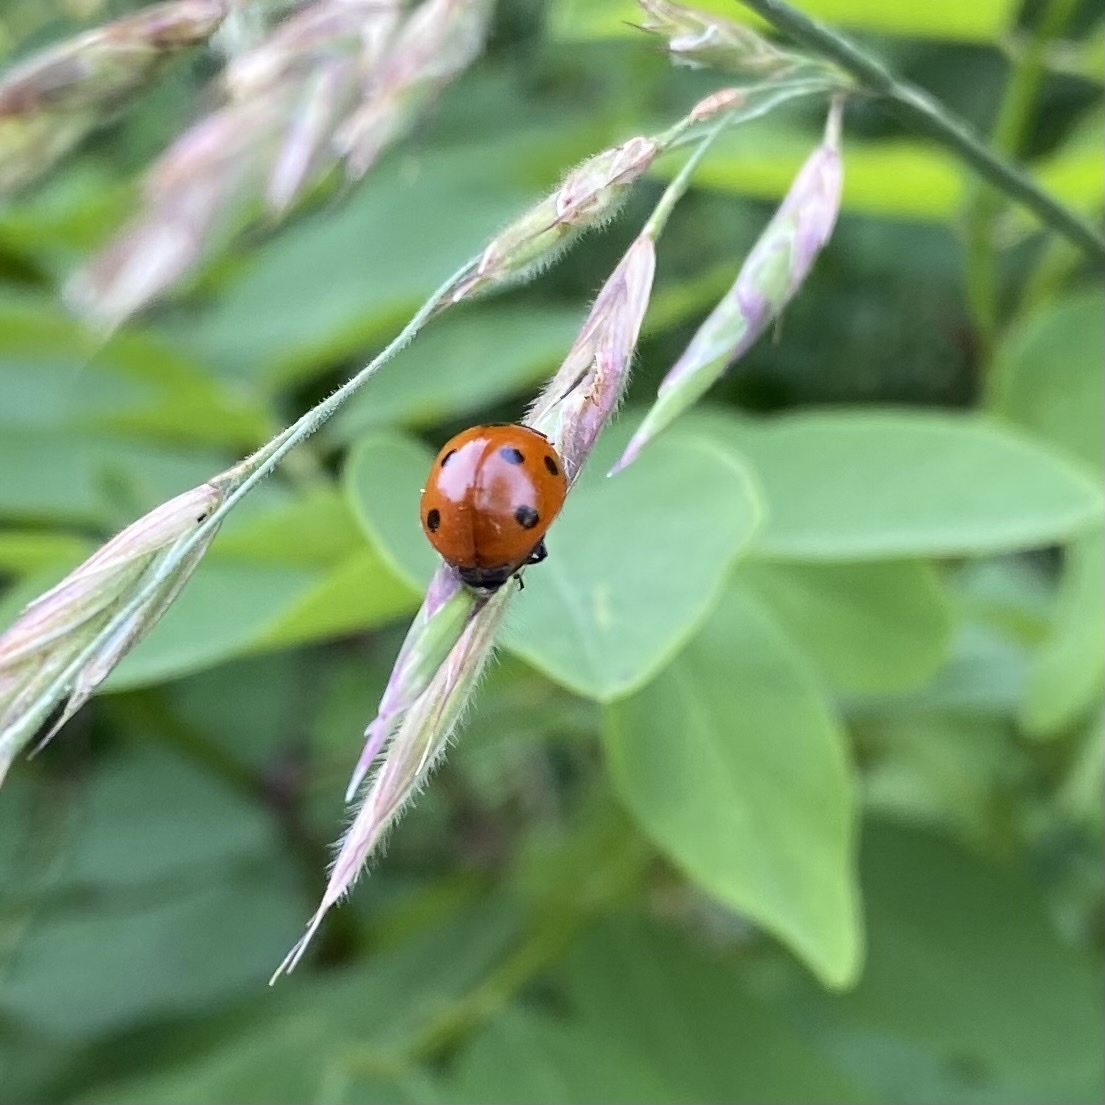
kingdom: Animalia
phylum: Arthropoda
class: Insecta
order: Coleoptera
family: Coccinellidae
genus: Coccinella
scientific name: Coccinella septempunctata
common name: Sevenspotted lady beetle
